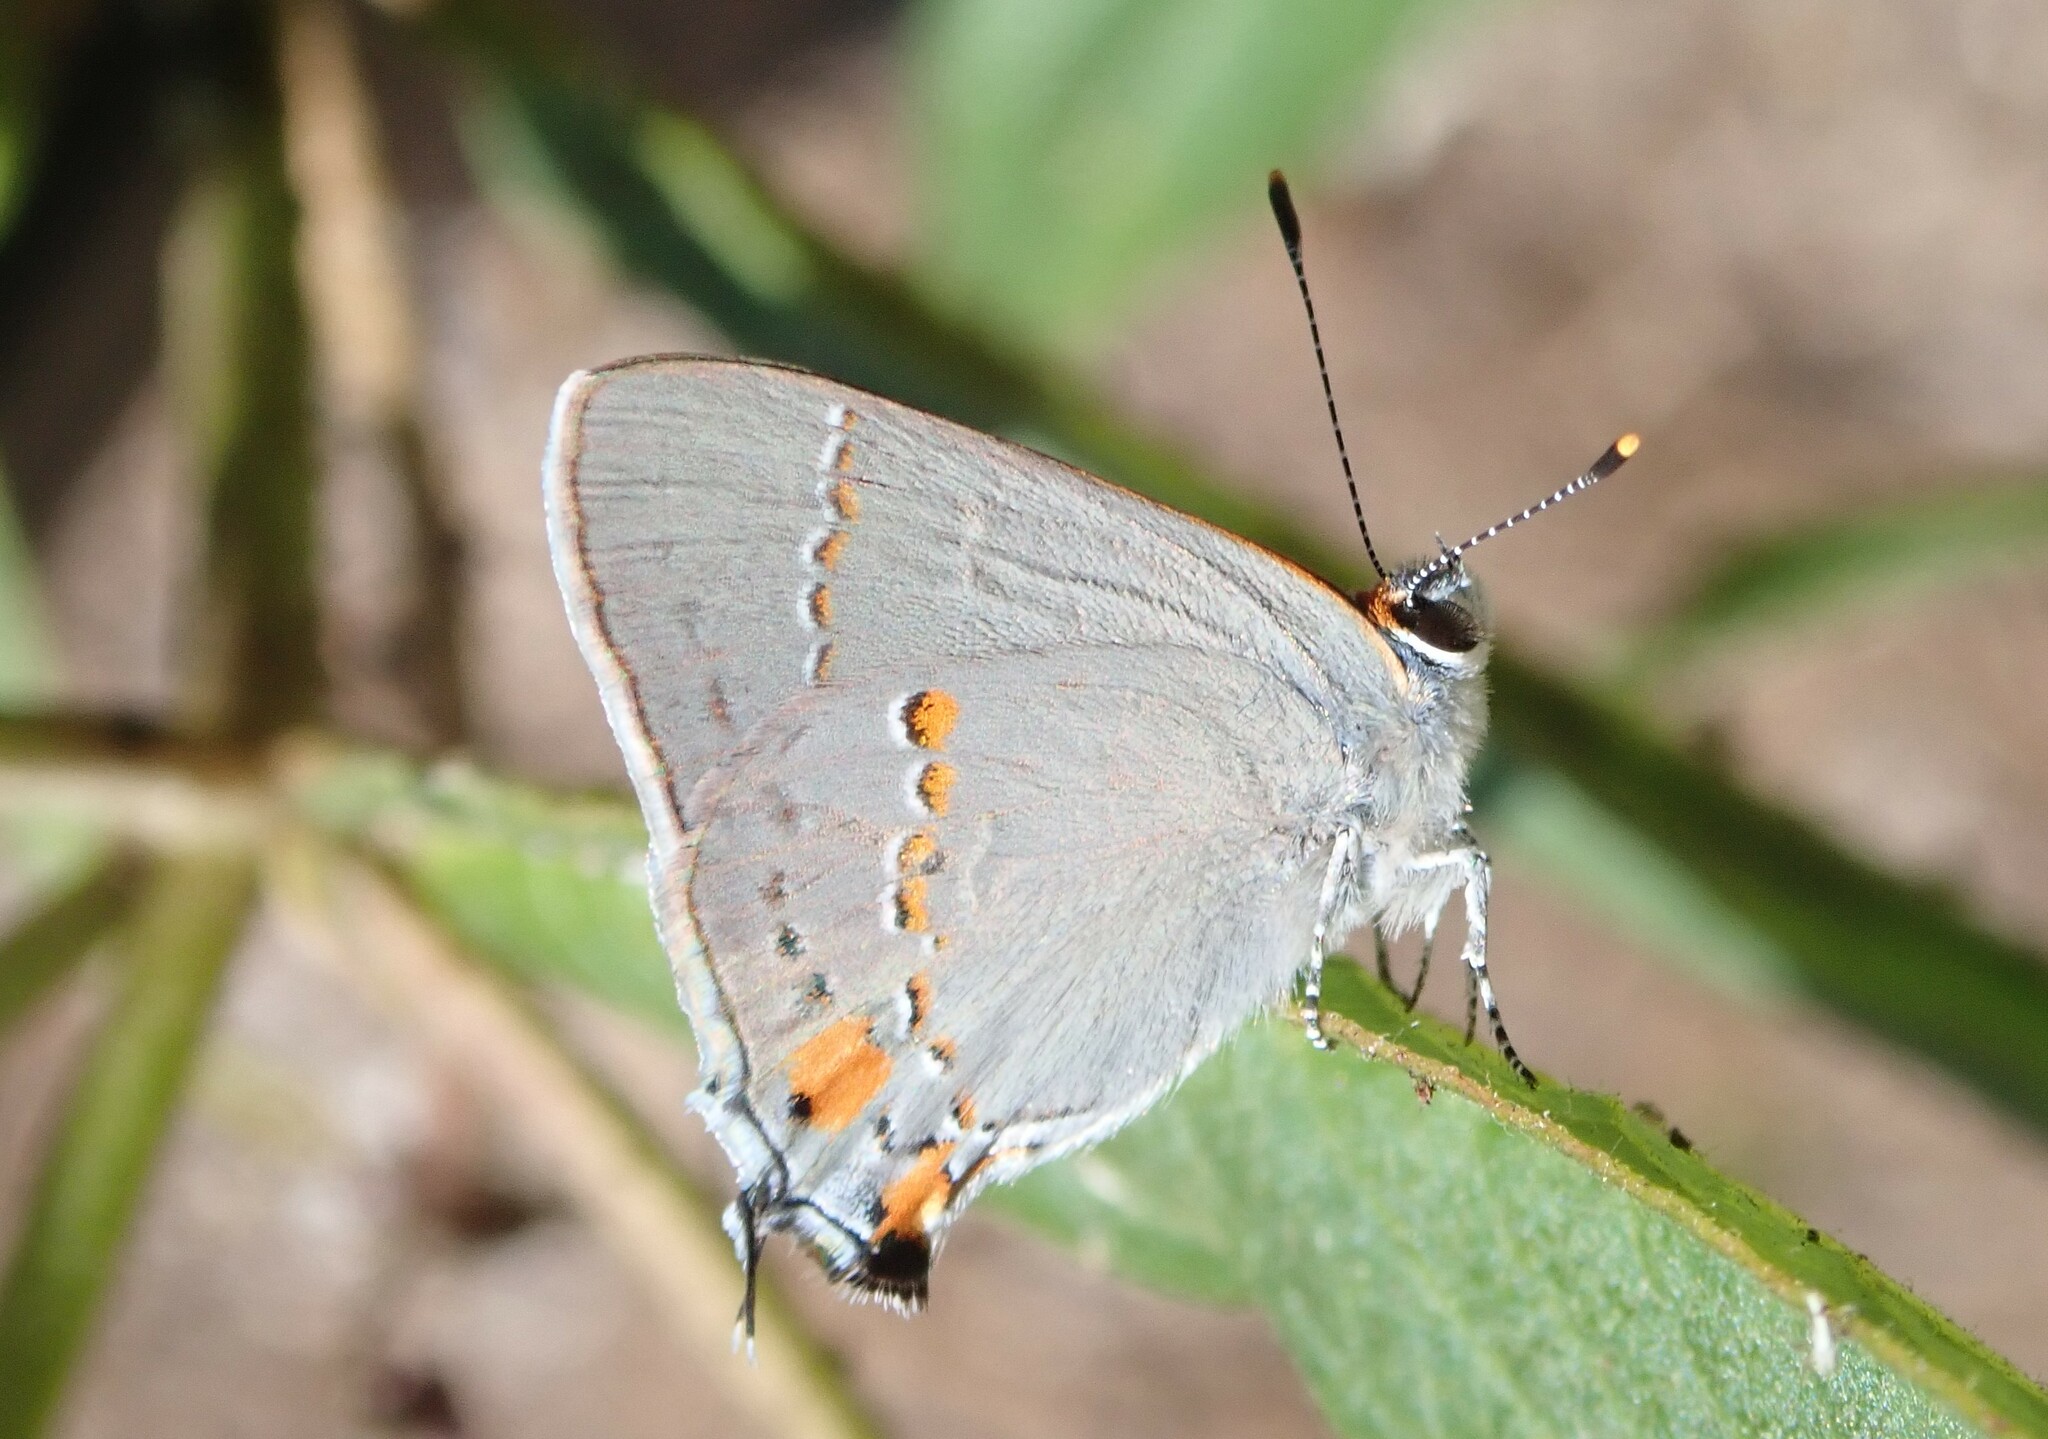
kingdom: Animalia
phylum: Arthropoda
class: Insecta
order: Lepidoptera
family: Lycaenidae
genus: Strymon
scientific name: Strymon melinus
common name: Gray hairstreak
